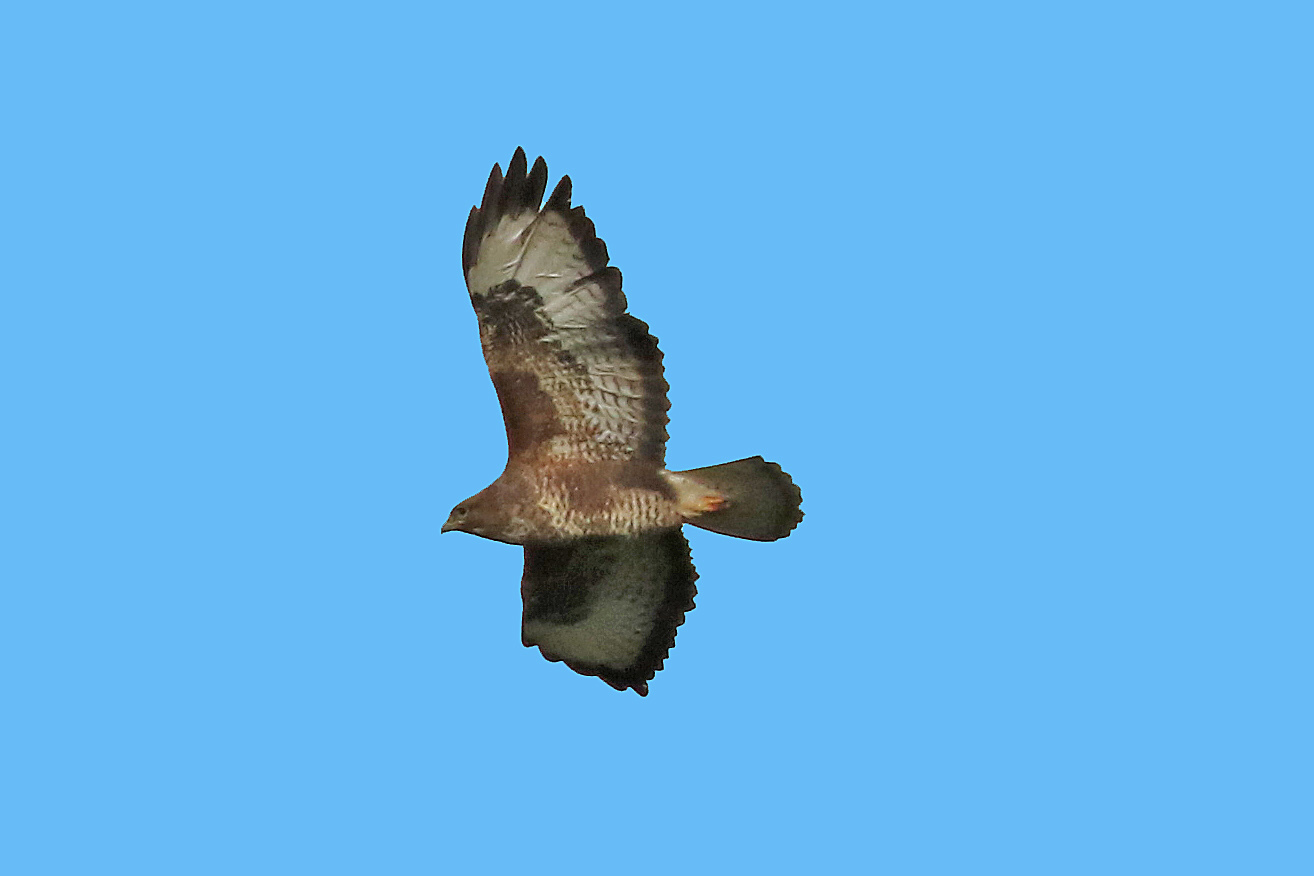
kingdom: Animalia
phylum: Chordata
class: Aves
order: Accipitriformes
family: Accipitridae
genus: Buteo
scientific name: Buteo buteo
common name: Common buzzard
